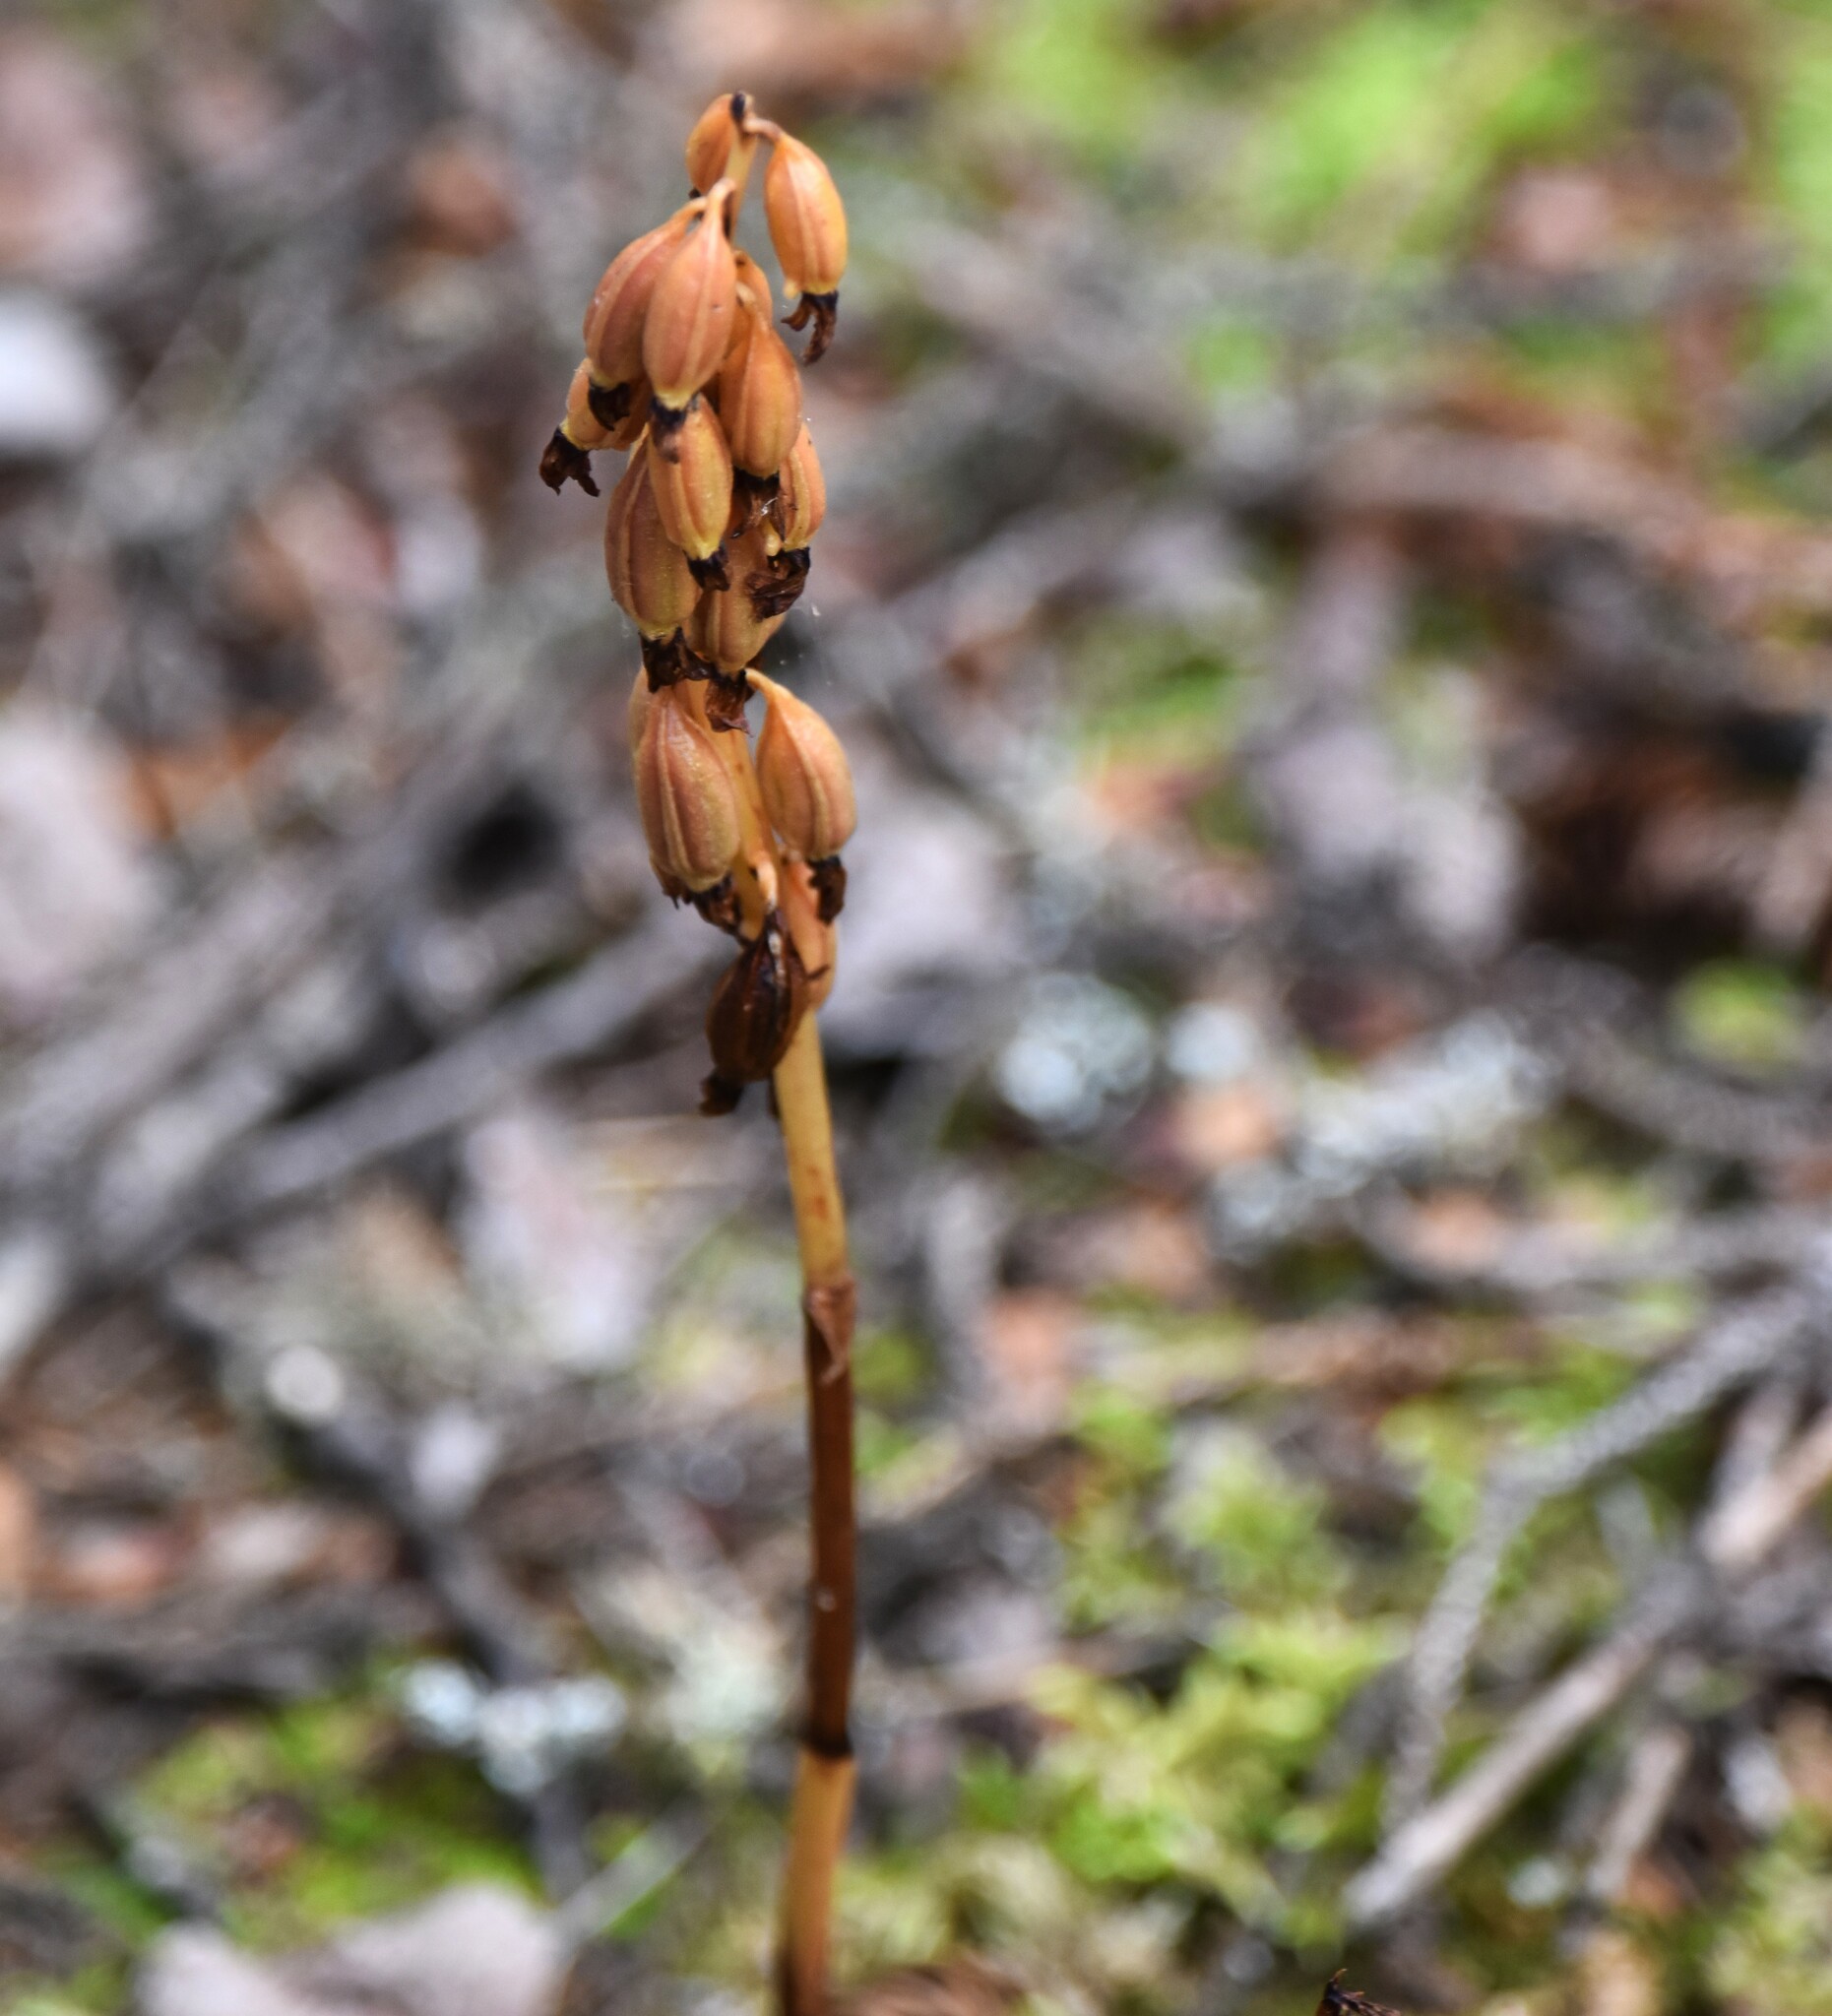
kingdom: Plantae
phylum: Tracheophyta
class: Liliopsida
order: Asparagales
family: Orchidaceae
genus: Corallorhiza
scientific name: Corallorhiza maculata
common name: Spotted coralroot
